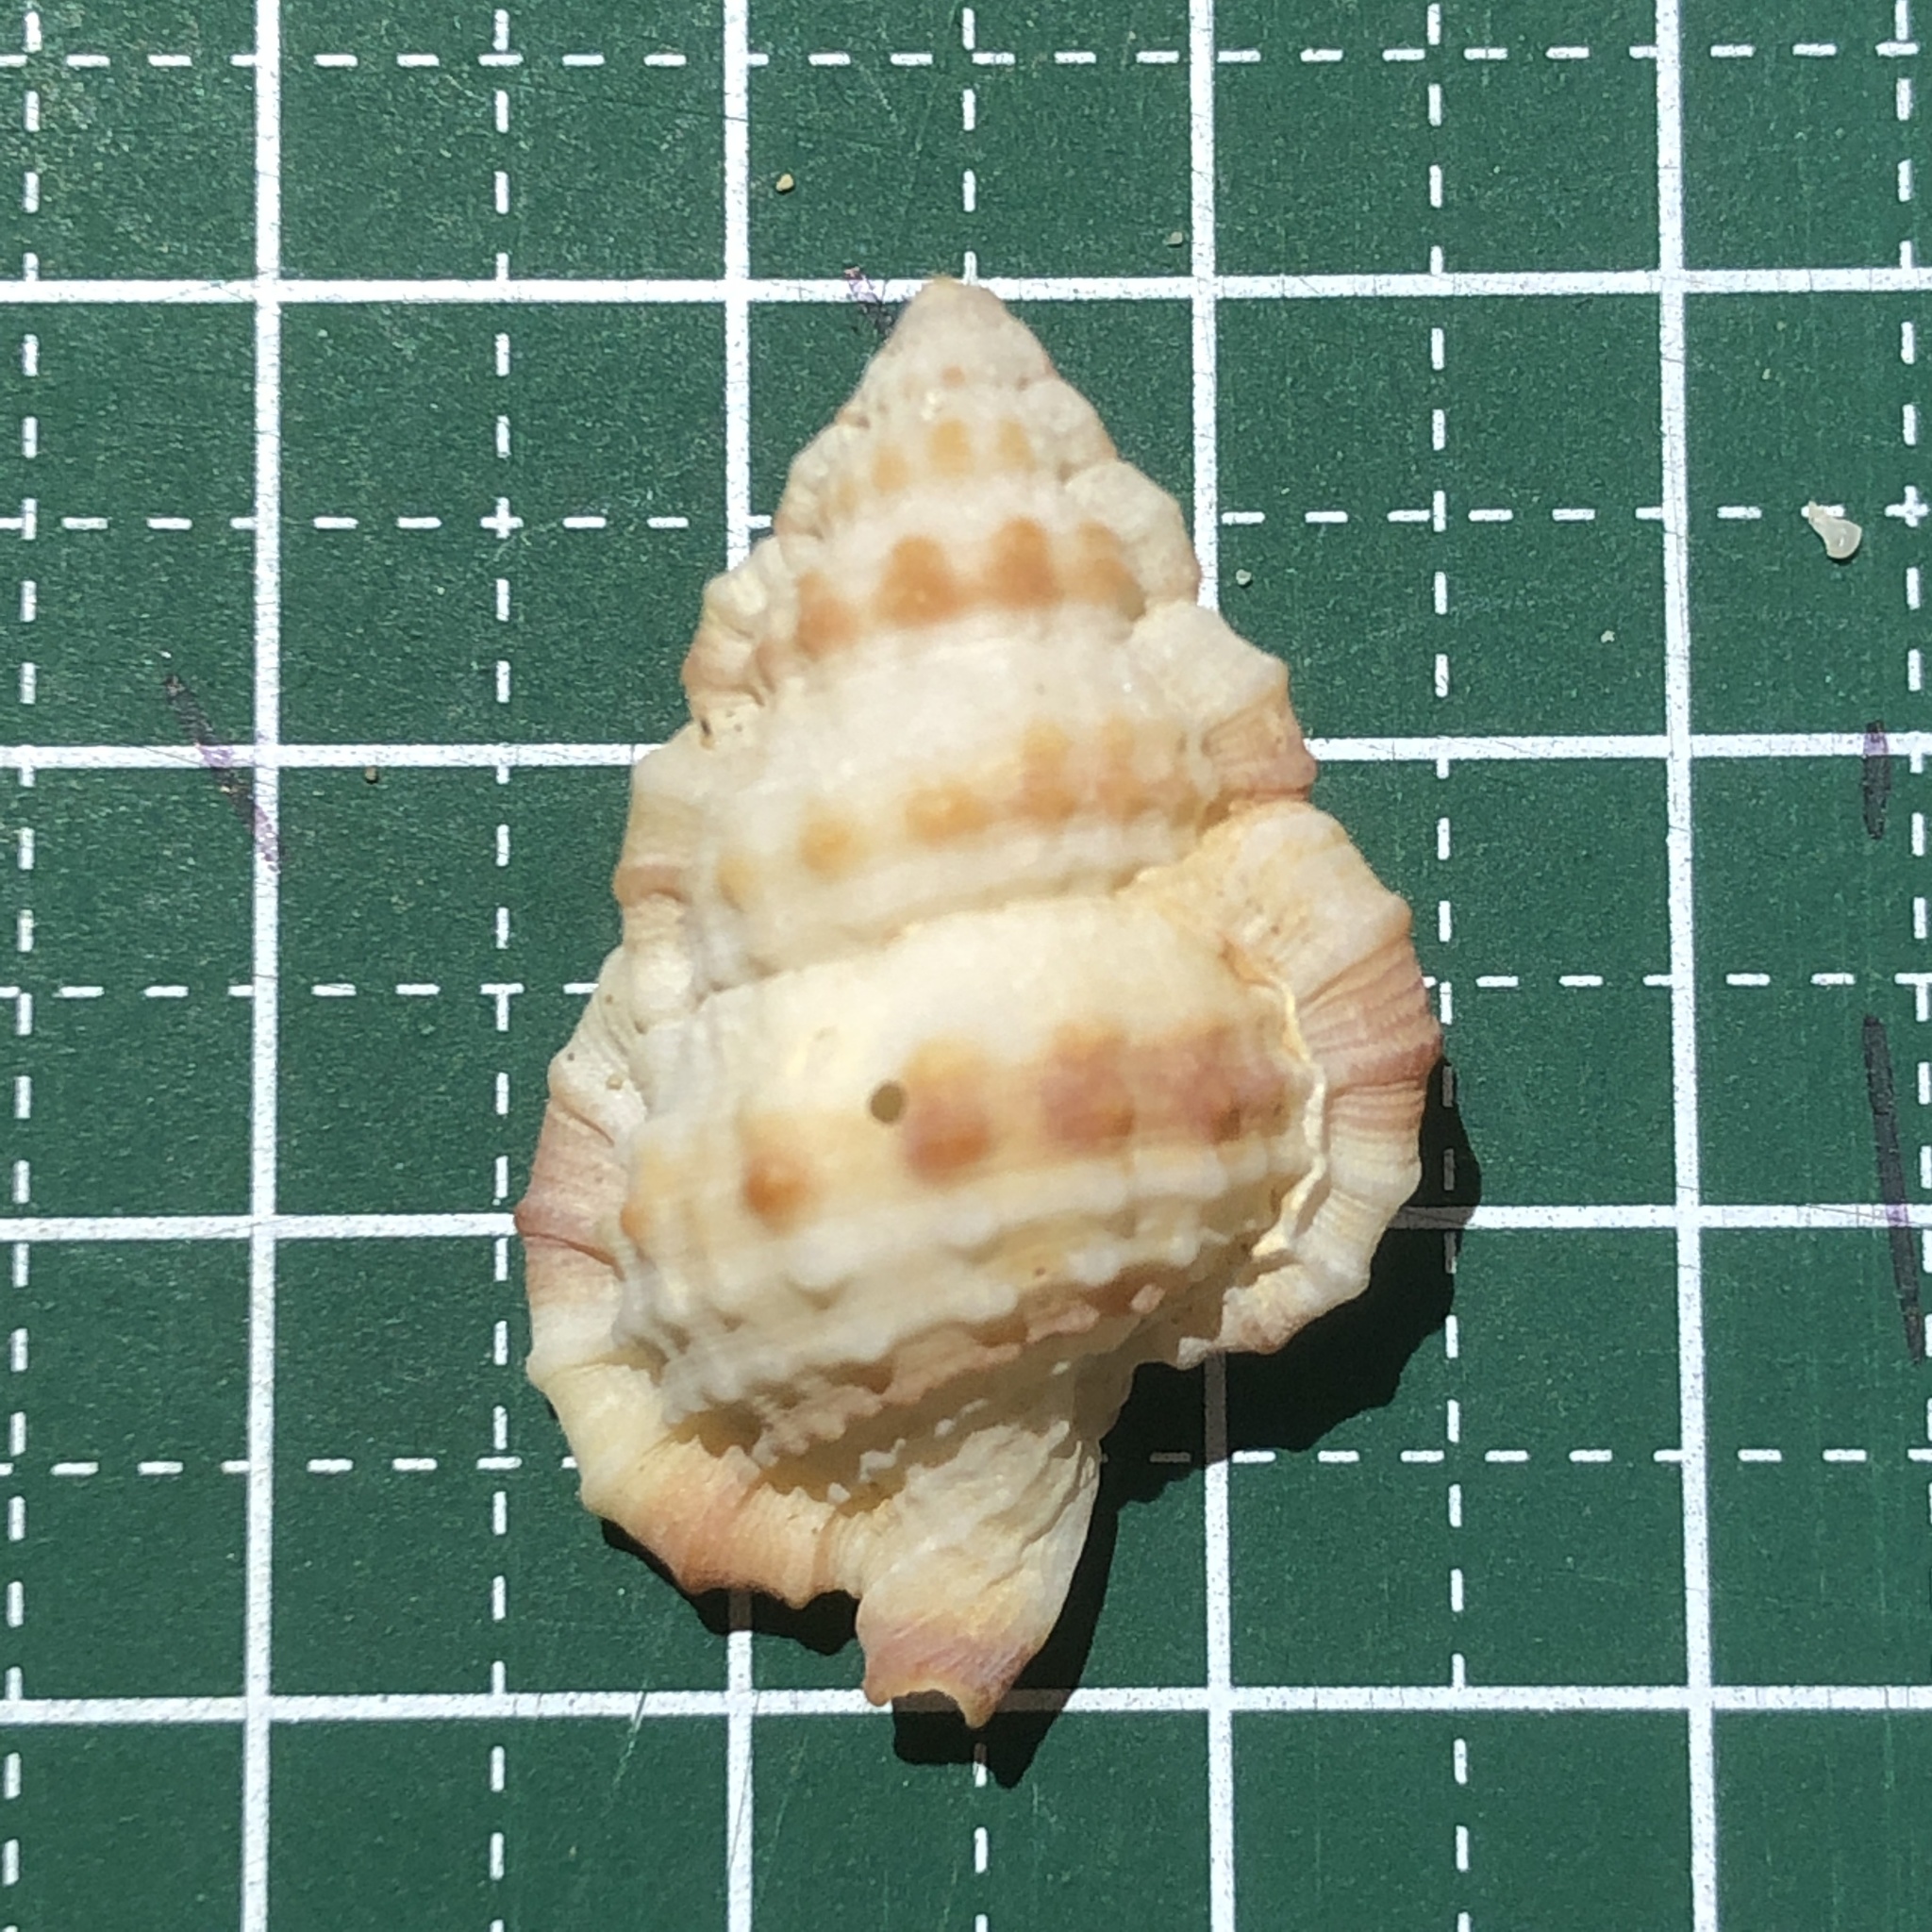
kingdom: Animalia
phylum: Mollusca
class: Gastropoda
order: Littorinimorpha
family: Cymatiidae
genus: Gyrineum
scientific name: Gyrineum gyrinum
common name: Tadpole triton
